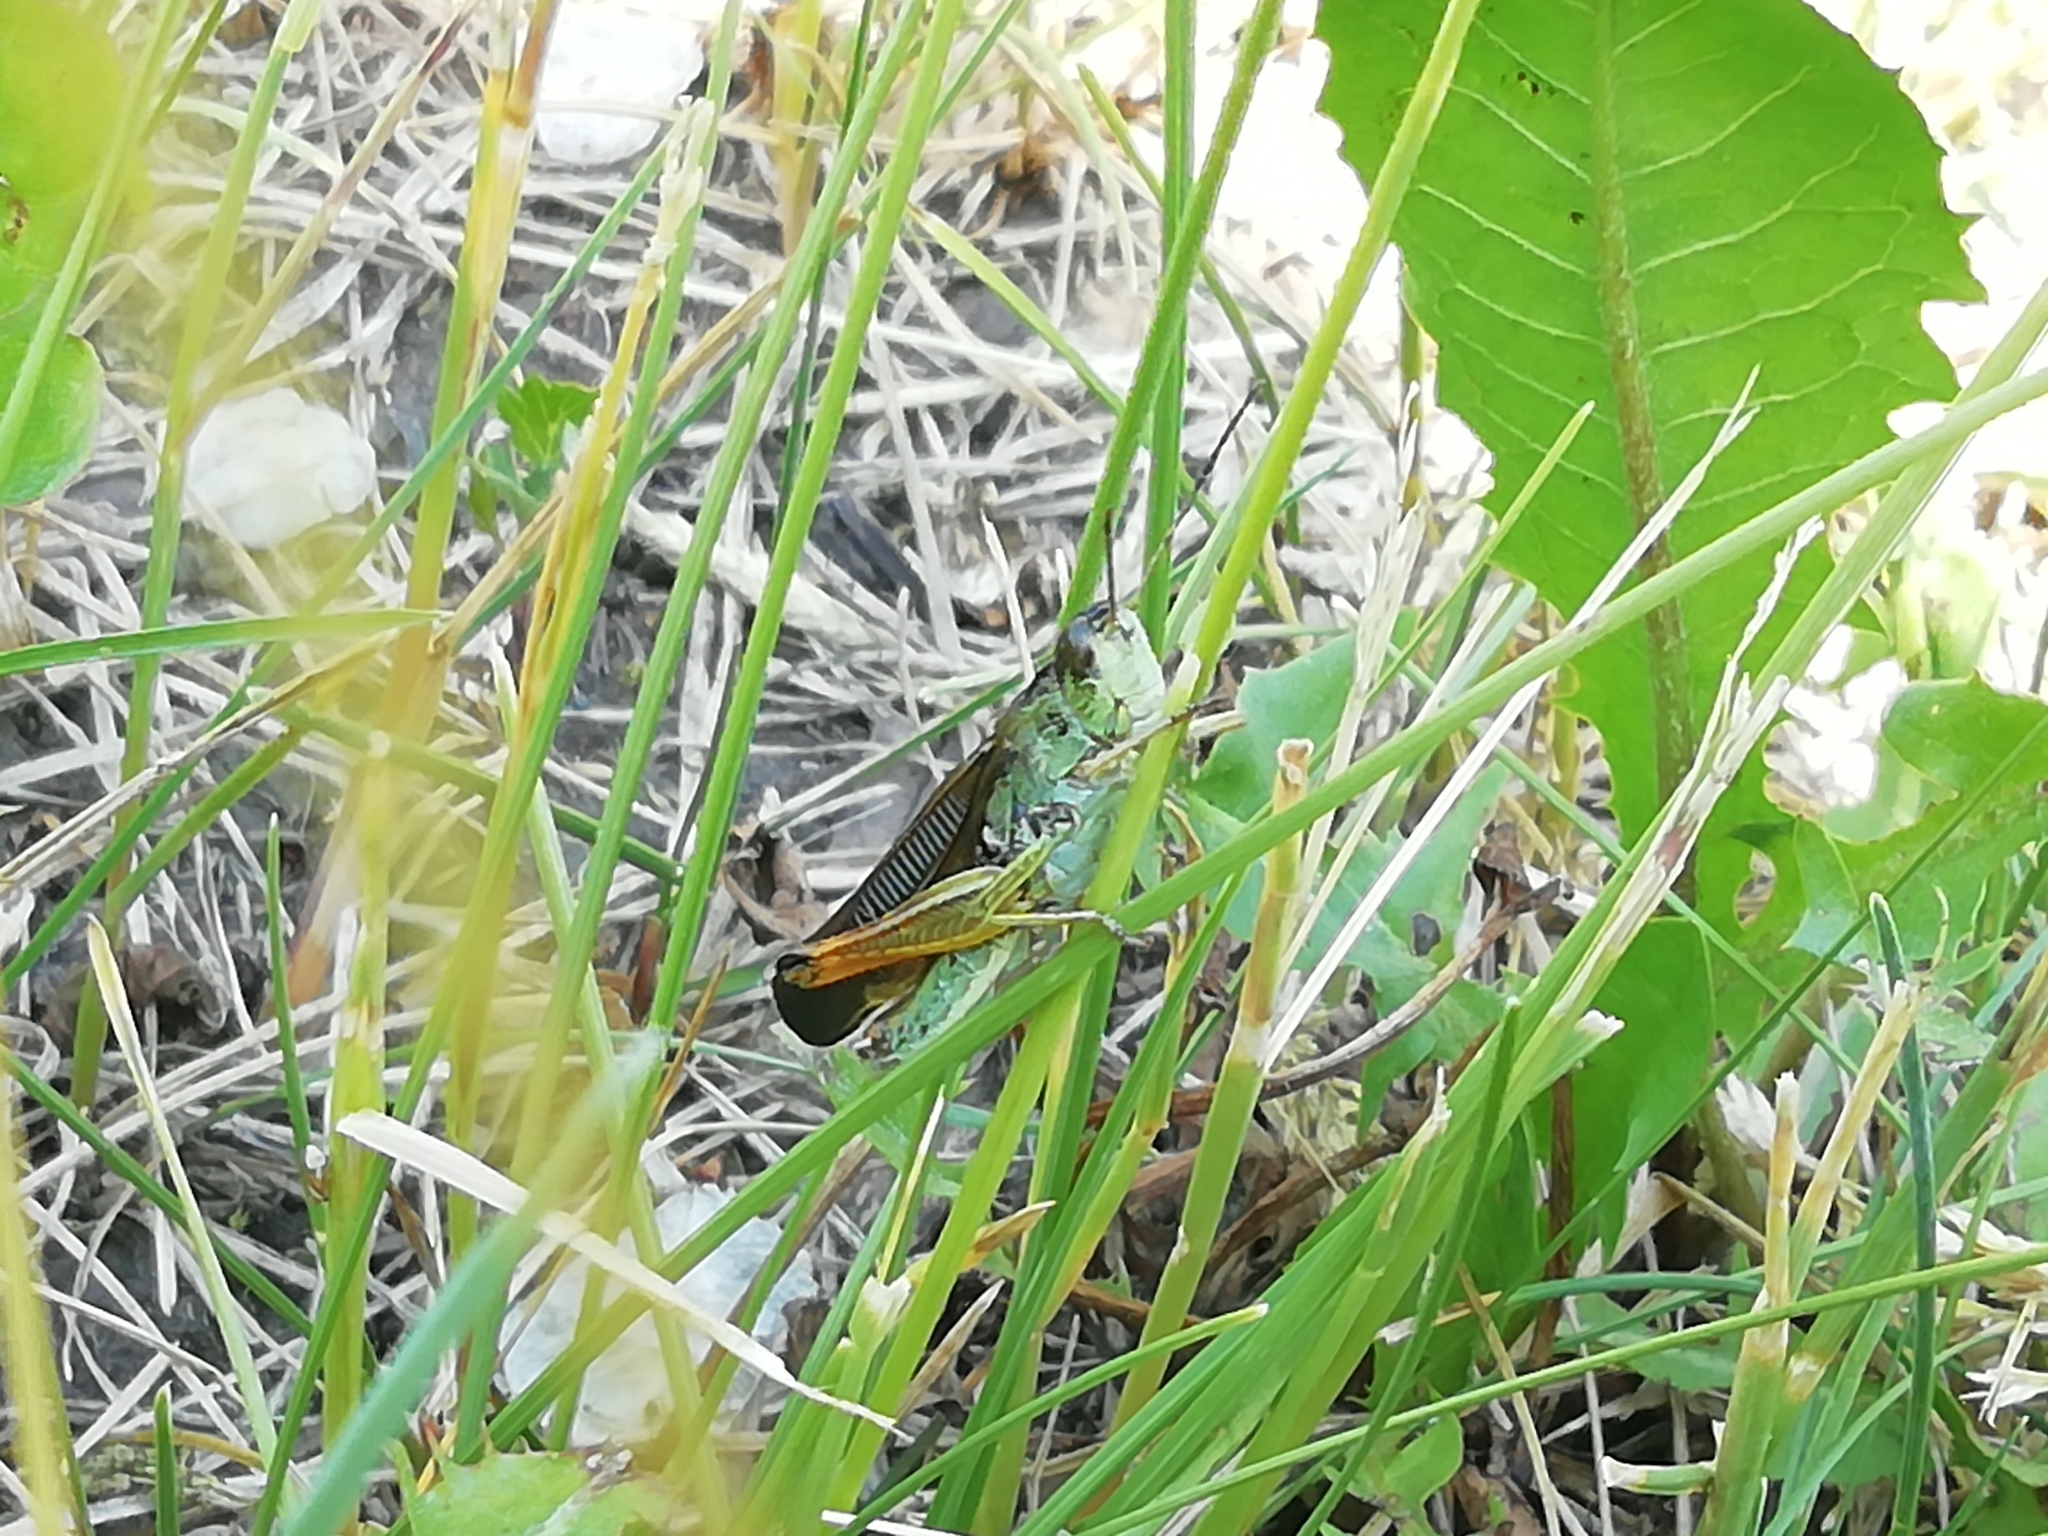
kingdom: Animalia
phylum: Arthropoda
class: Insecta
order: Orthoptera
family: Acrididae
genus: Stauroderus
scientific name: Stauroderus scalaris
